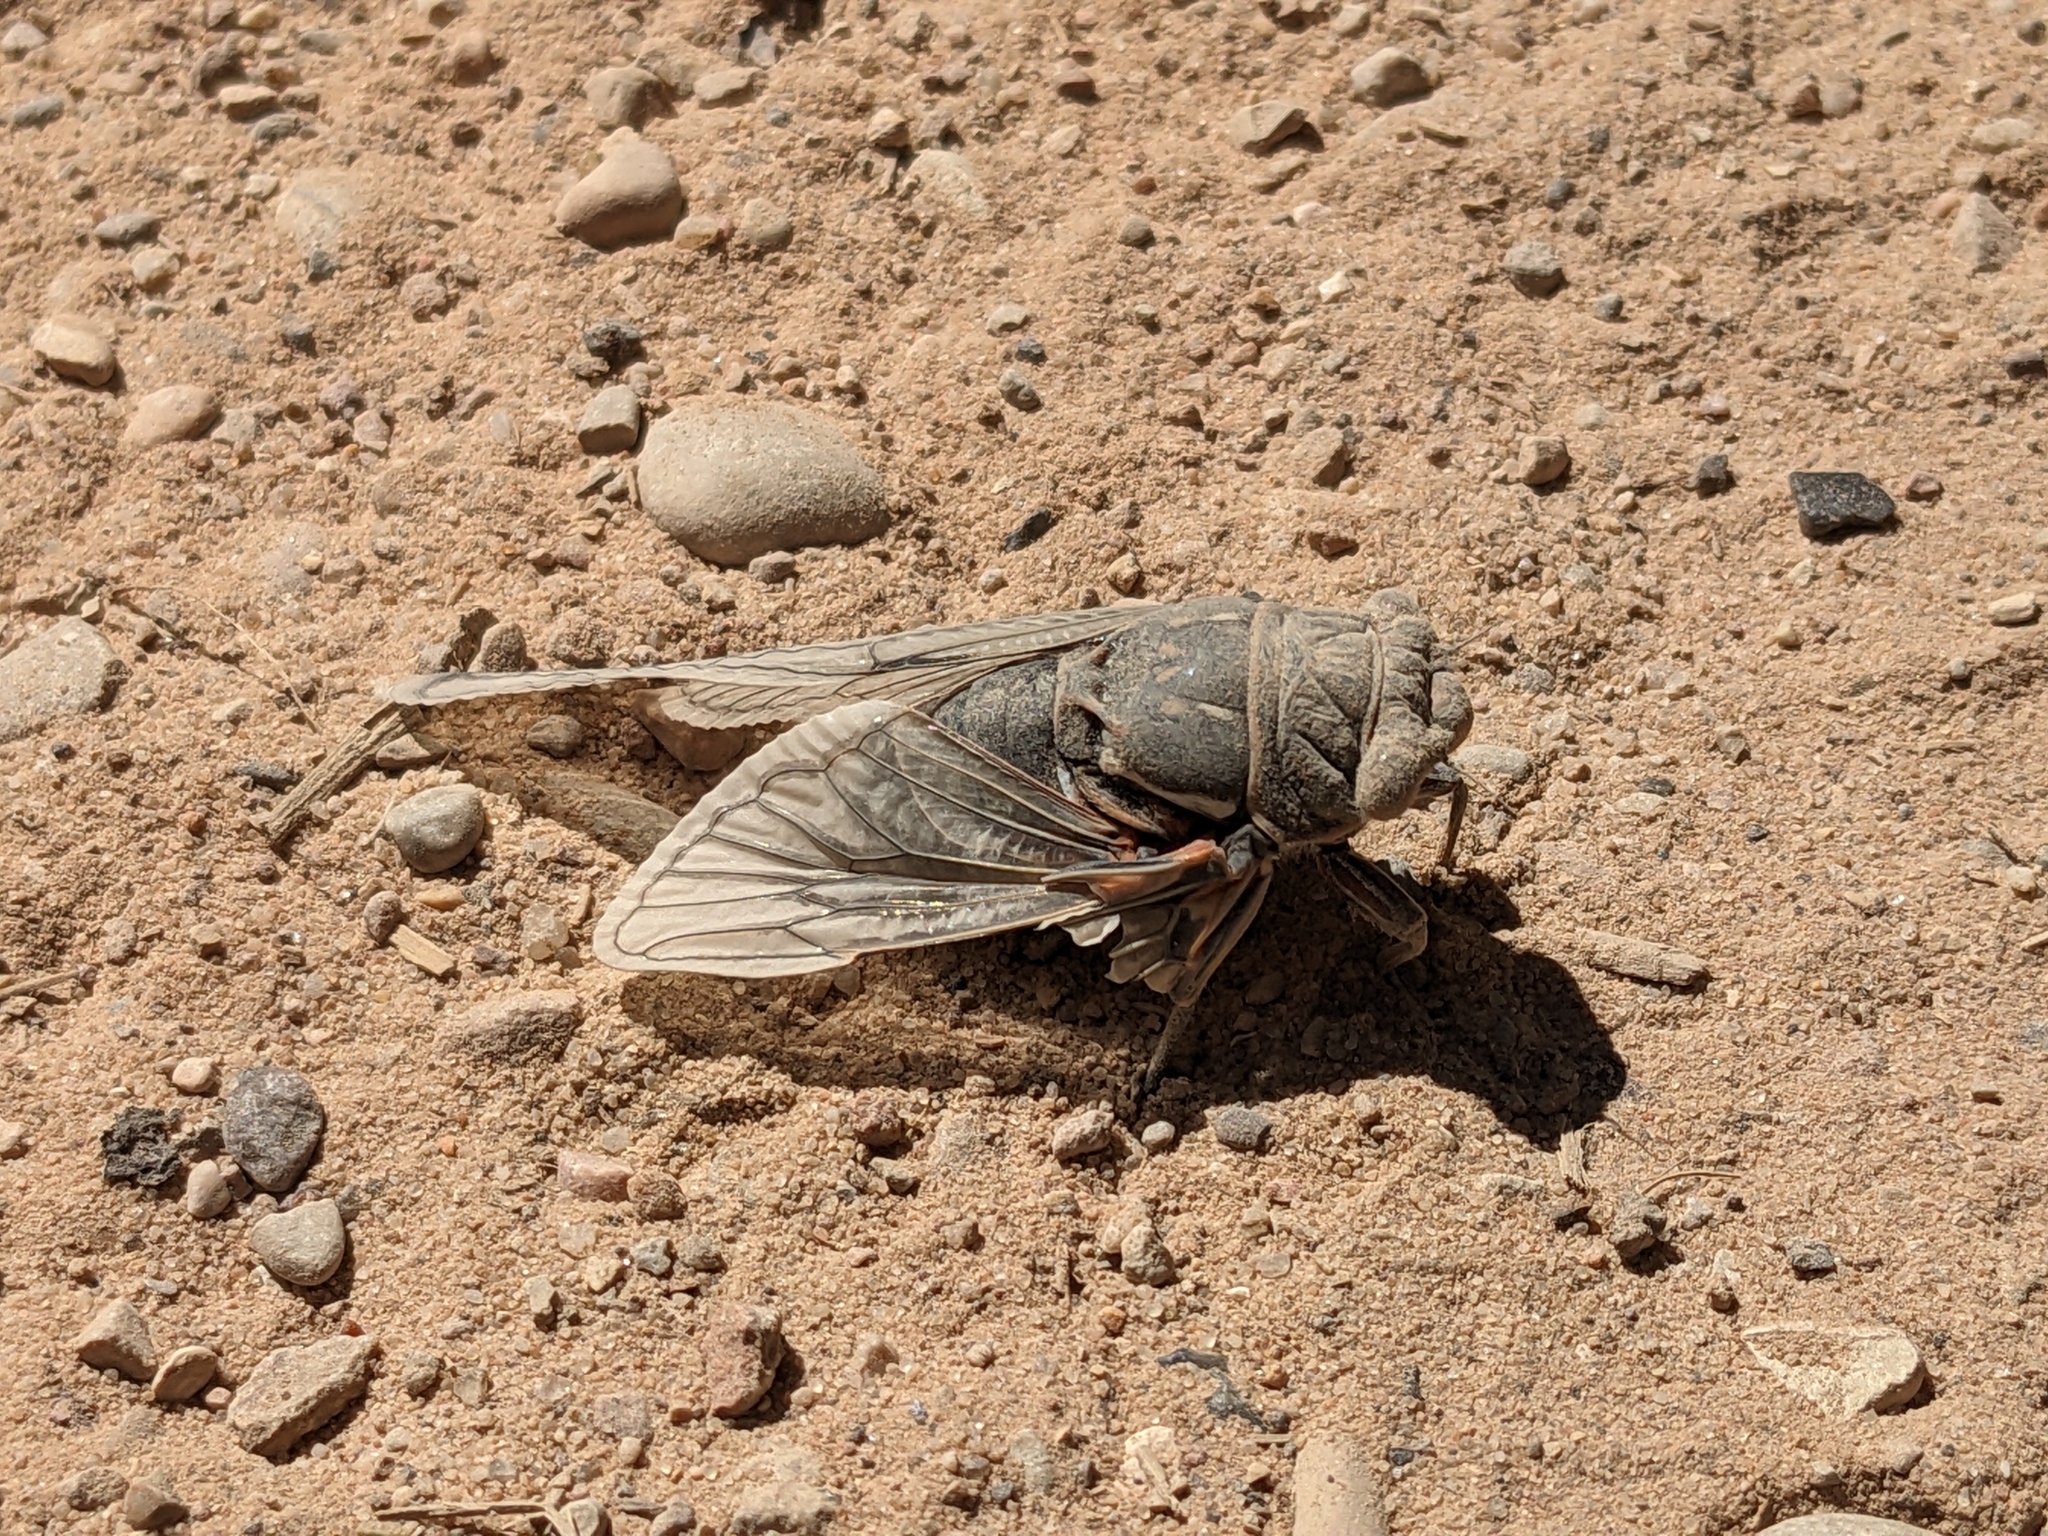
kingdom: Animalia
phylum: Arthropoda
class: Insecta
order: Hemiptera
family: Cicadidae
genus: Hadoa
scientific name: Hadoa duryi
